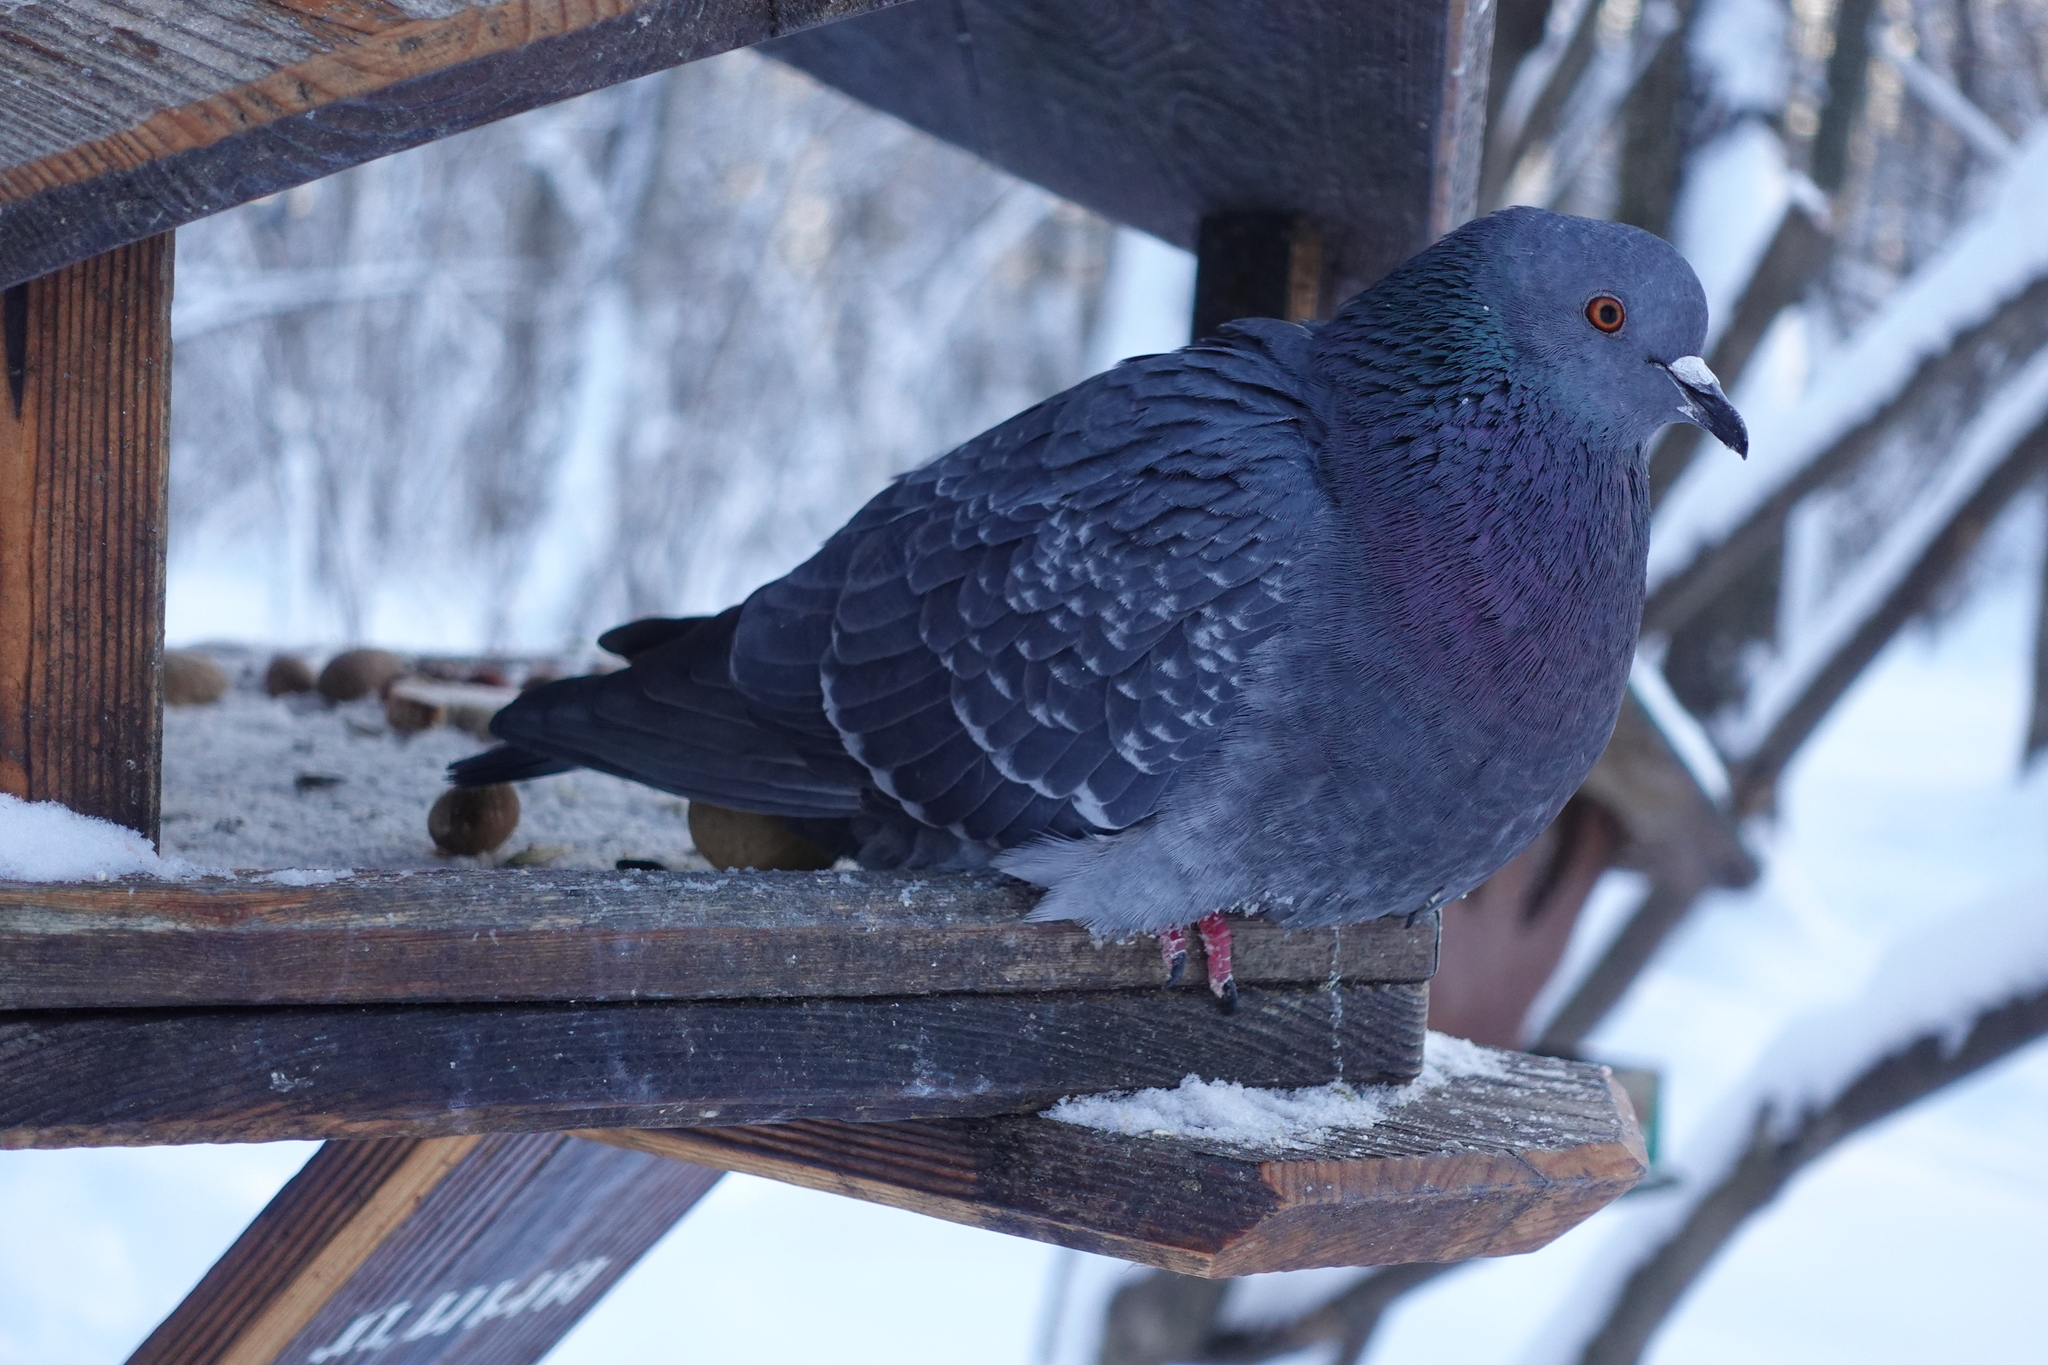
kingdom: Animalia
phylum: Chordata
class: Aves
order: Columbiformes
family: Columbidae
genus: Columba
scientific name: Columba livia
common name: Rock pigeon
